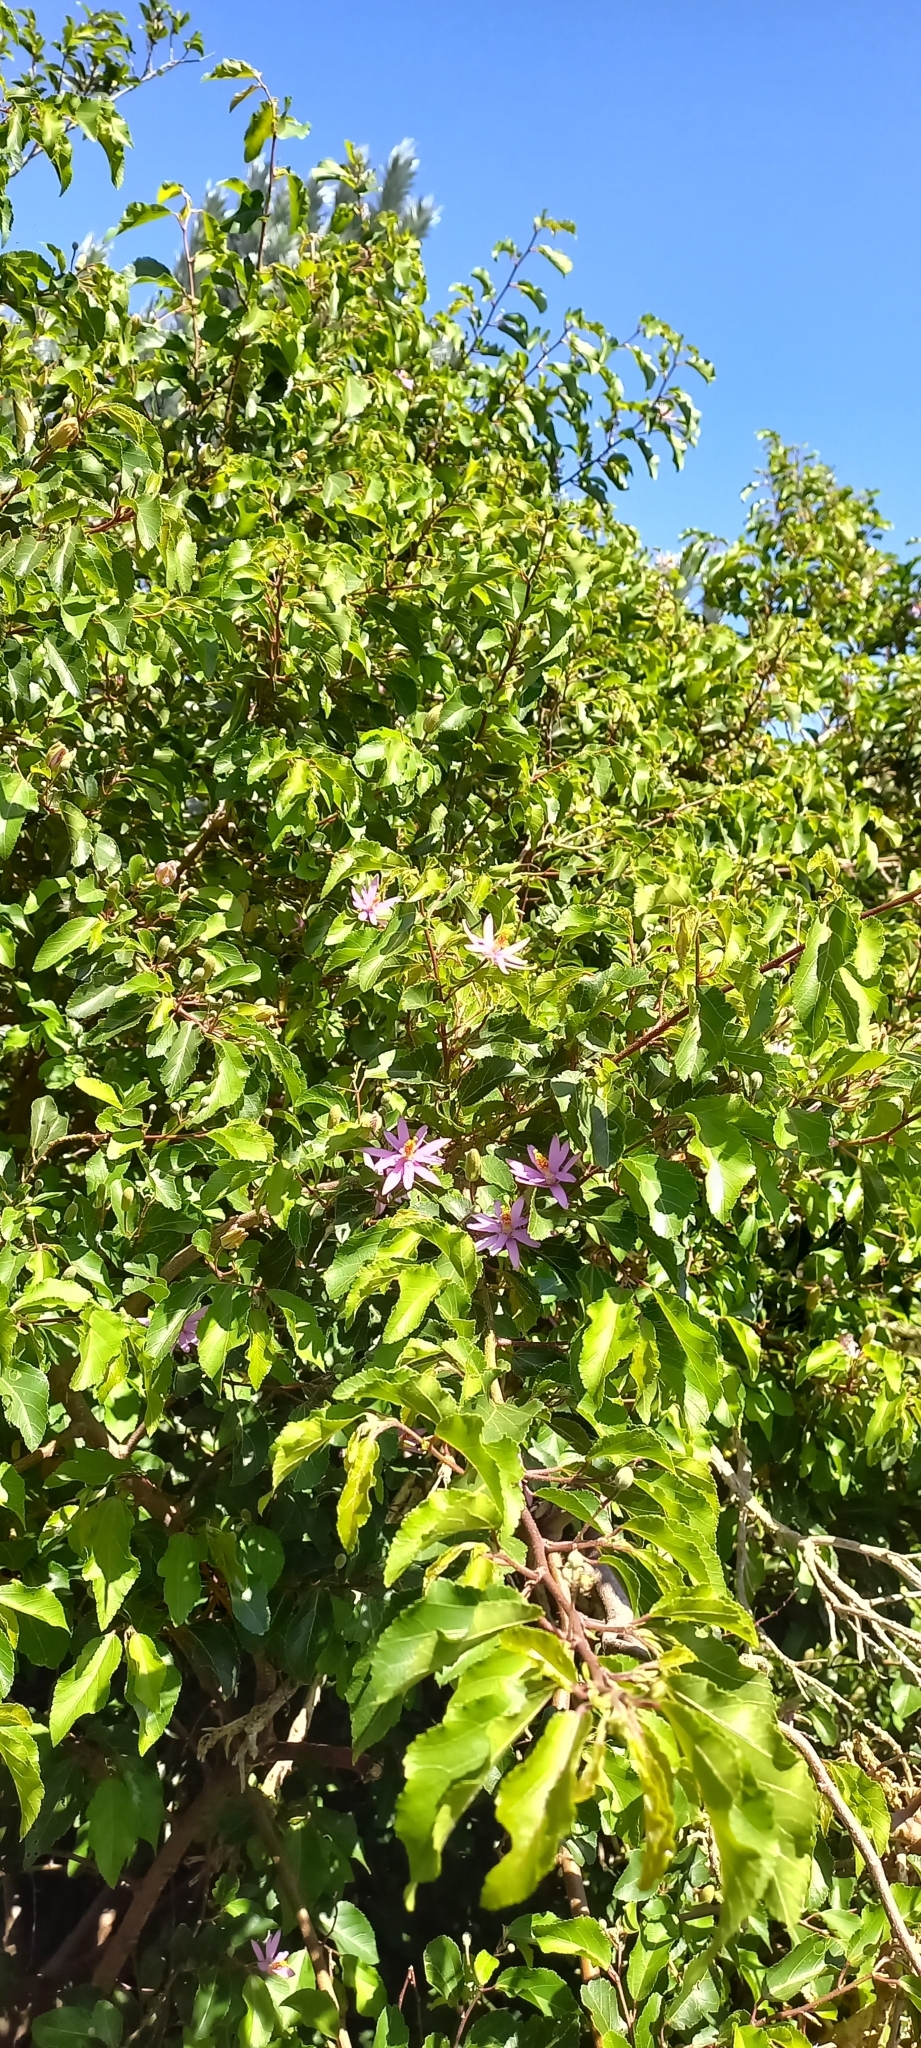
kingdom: Plantae
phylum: Tracheophyta
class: Magnoliopsida
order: Malvales
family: Malvaceae
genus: Grewia
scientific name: Grewia occidentalis
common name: Crossberry
